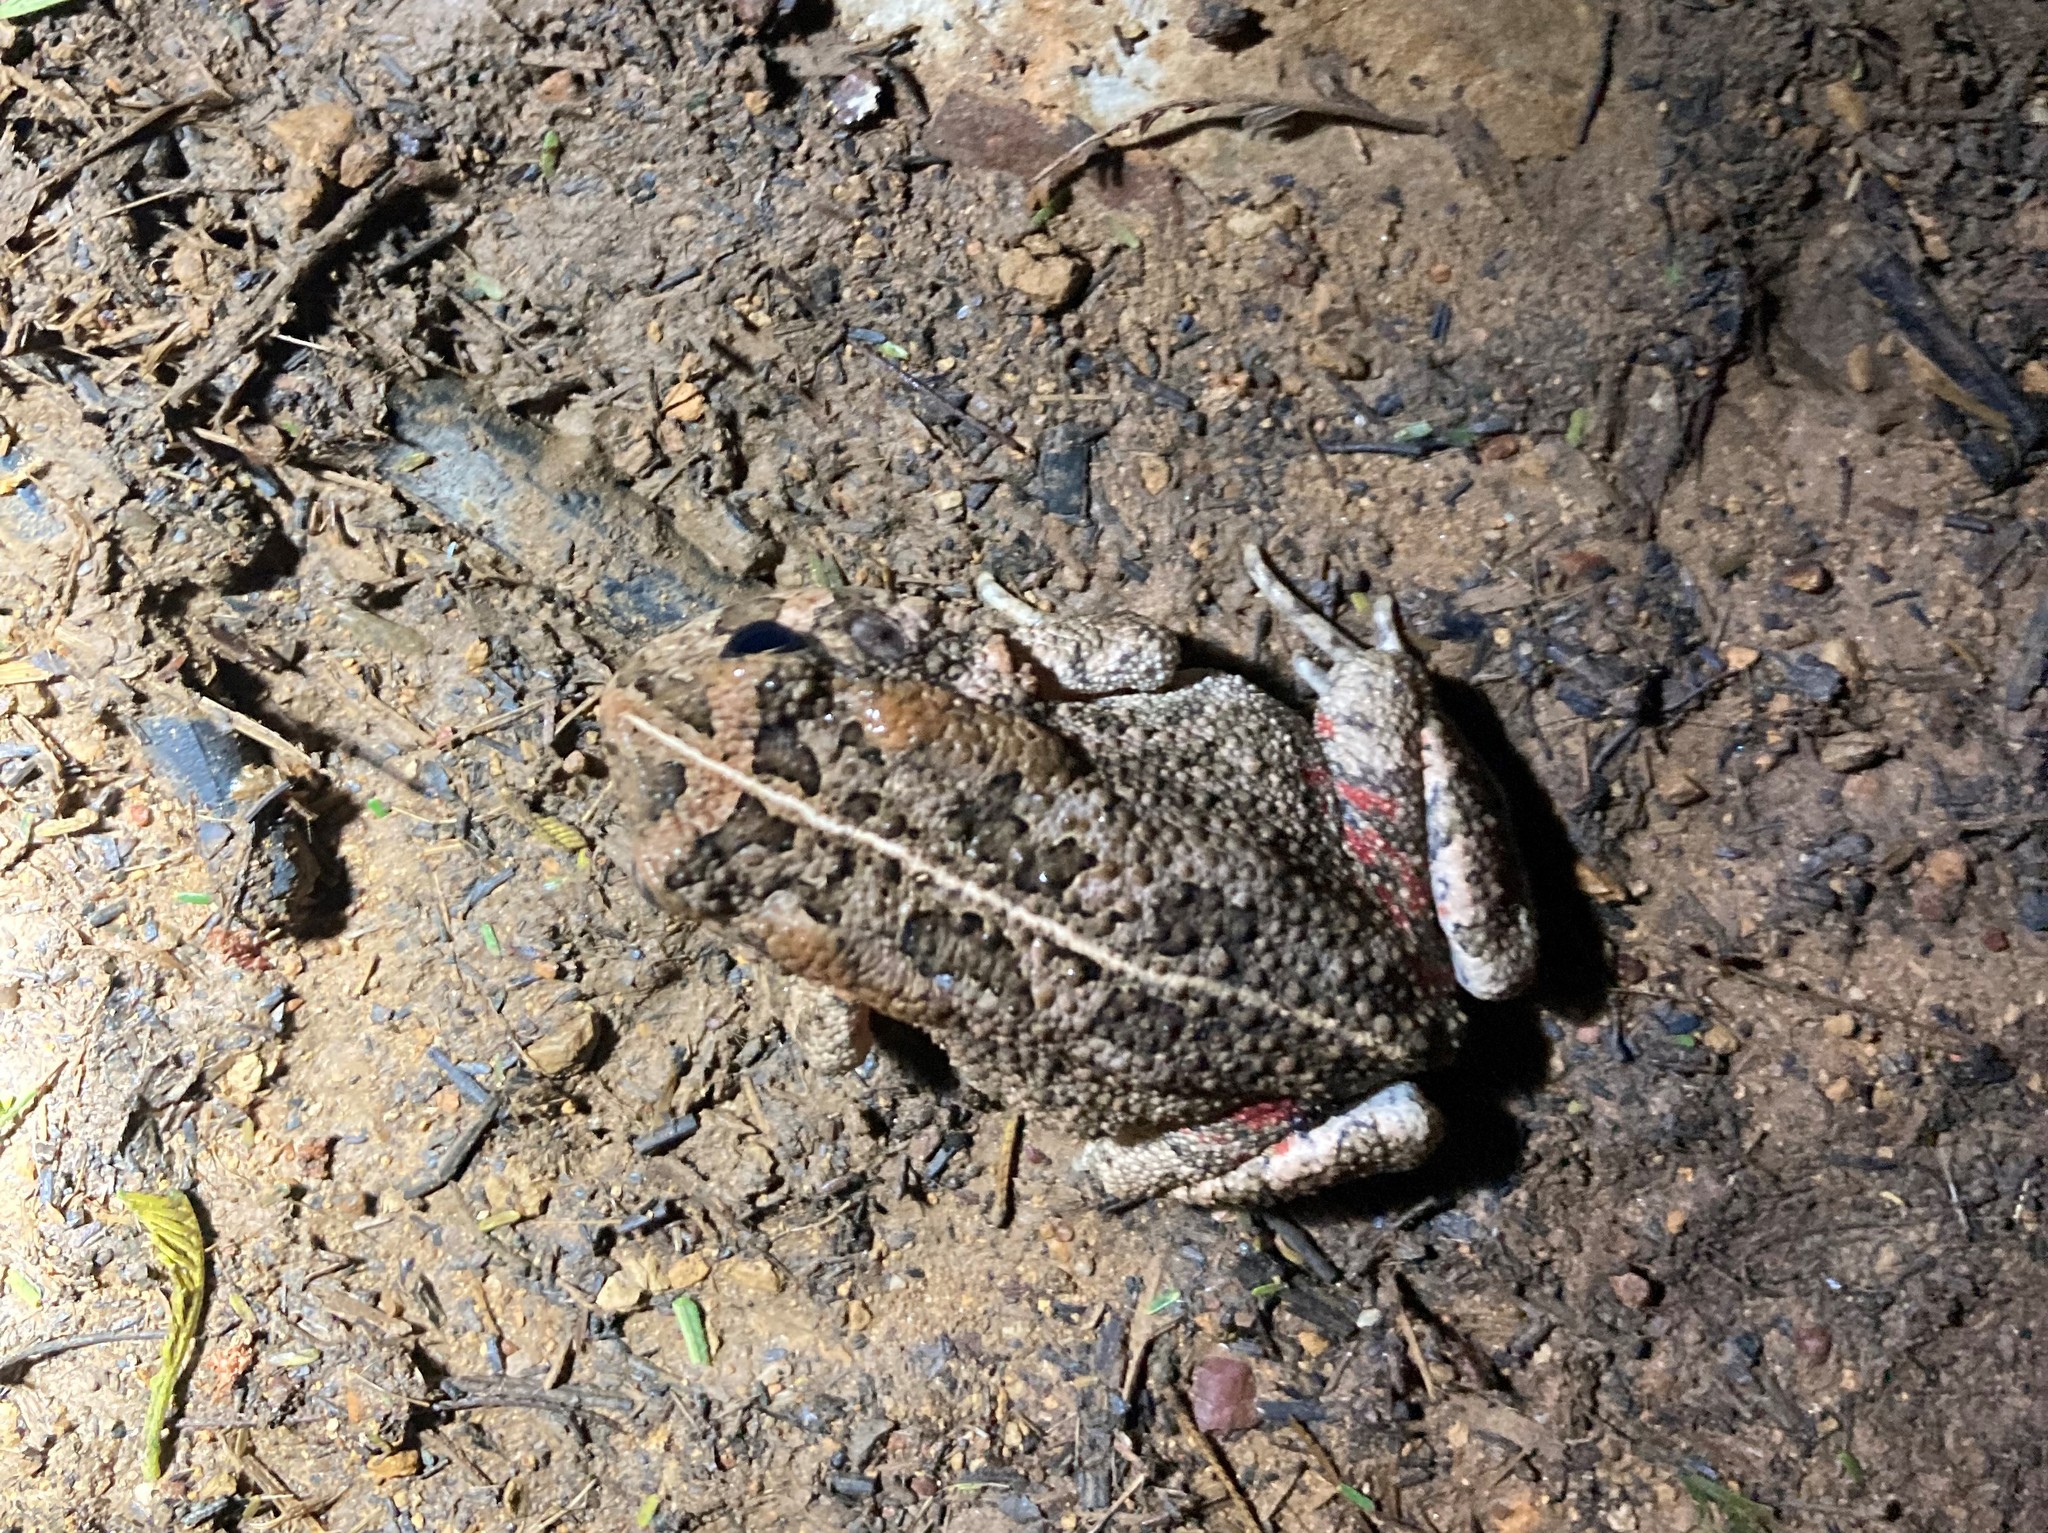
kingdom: Animalia
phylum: Chordata
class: Amphibia
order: Anura
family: Bufonidae
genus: Sclerophrys
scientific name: Sclerophrys gutturalis
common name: African common toad
